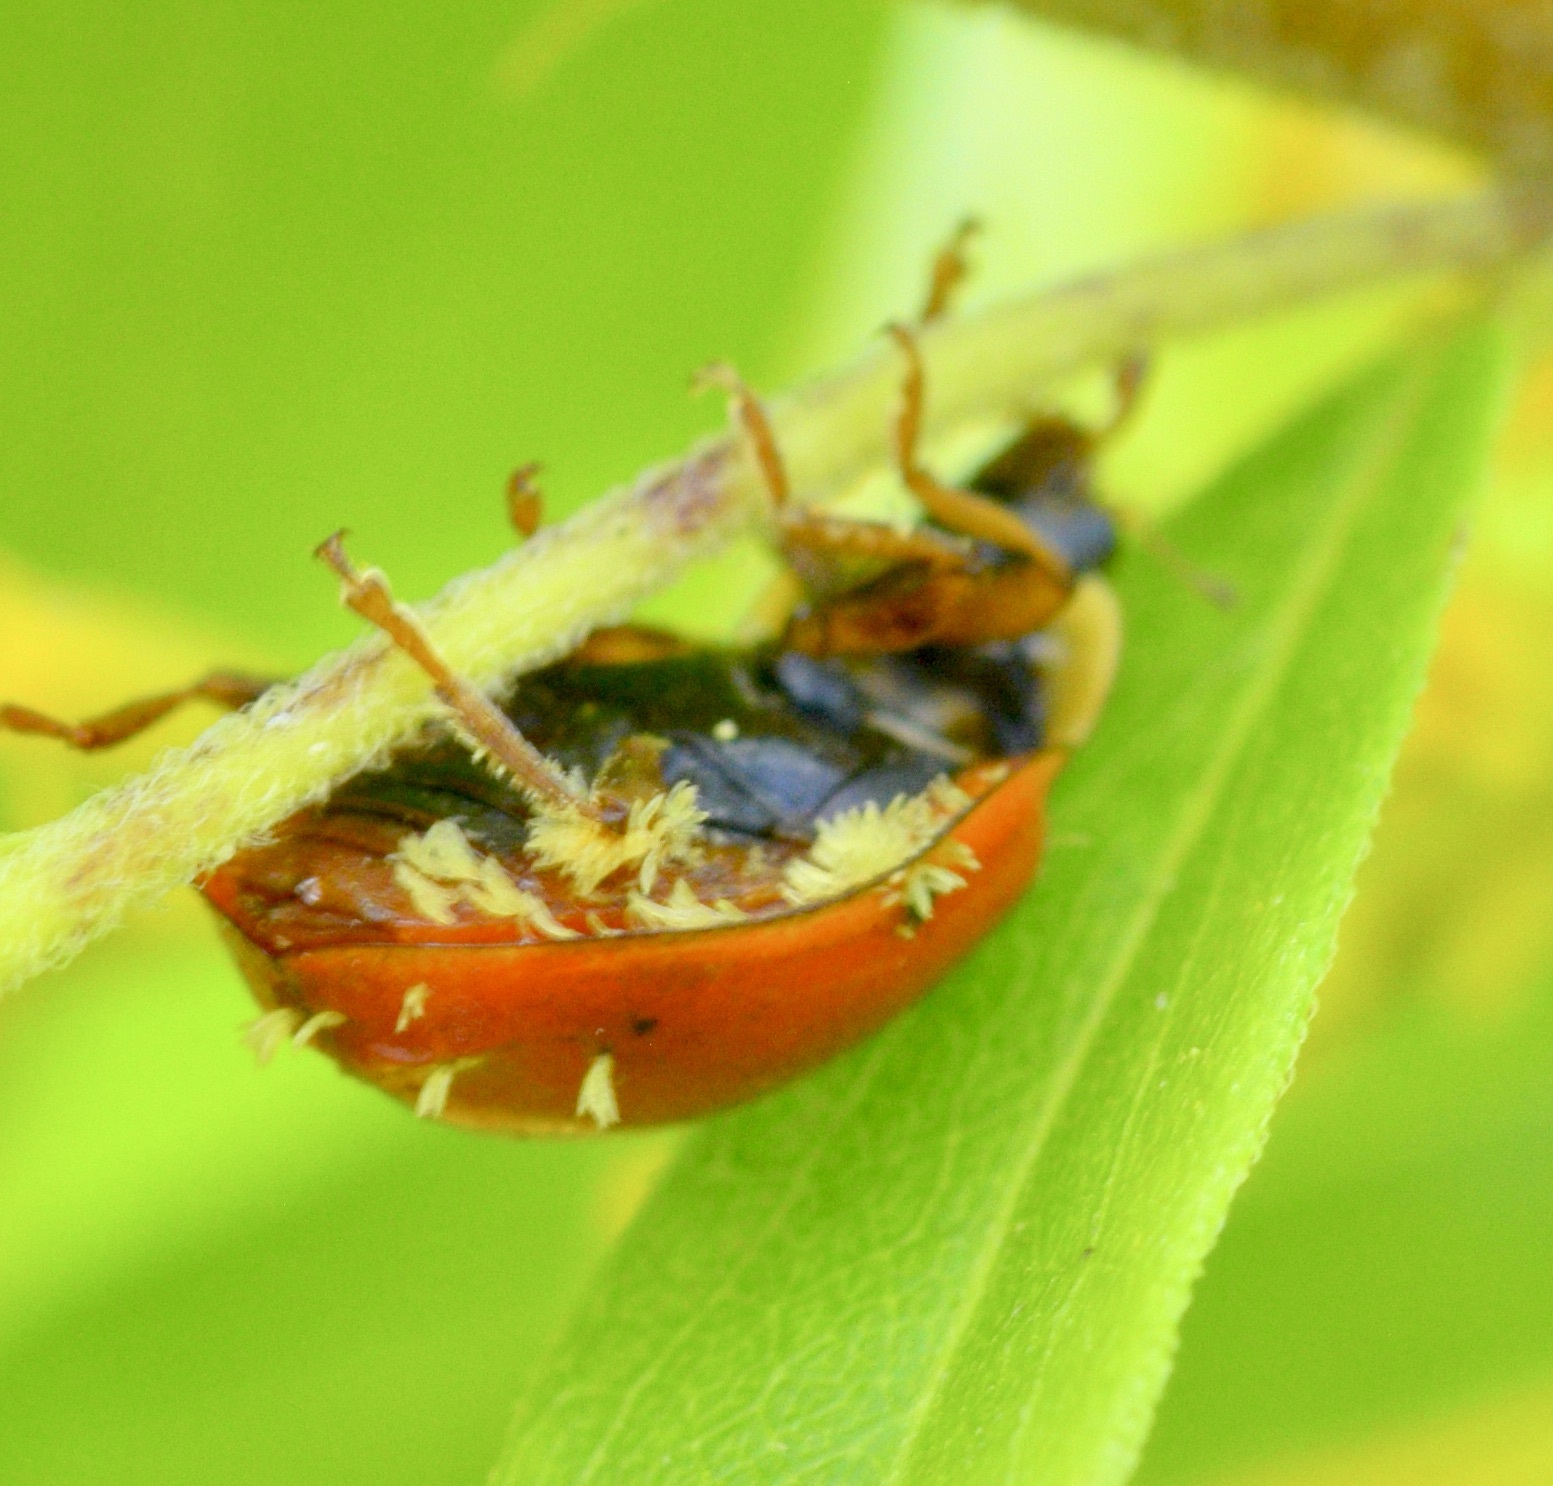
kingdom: Fungi
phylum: Ascomycota
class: Laboulbeniomycetes
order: Laboulbeniales
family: Laboulbeniaceae
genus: Hesperomyces
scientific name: Hesperomyces harmoniae
